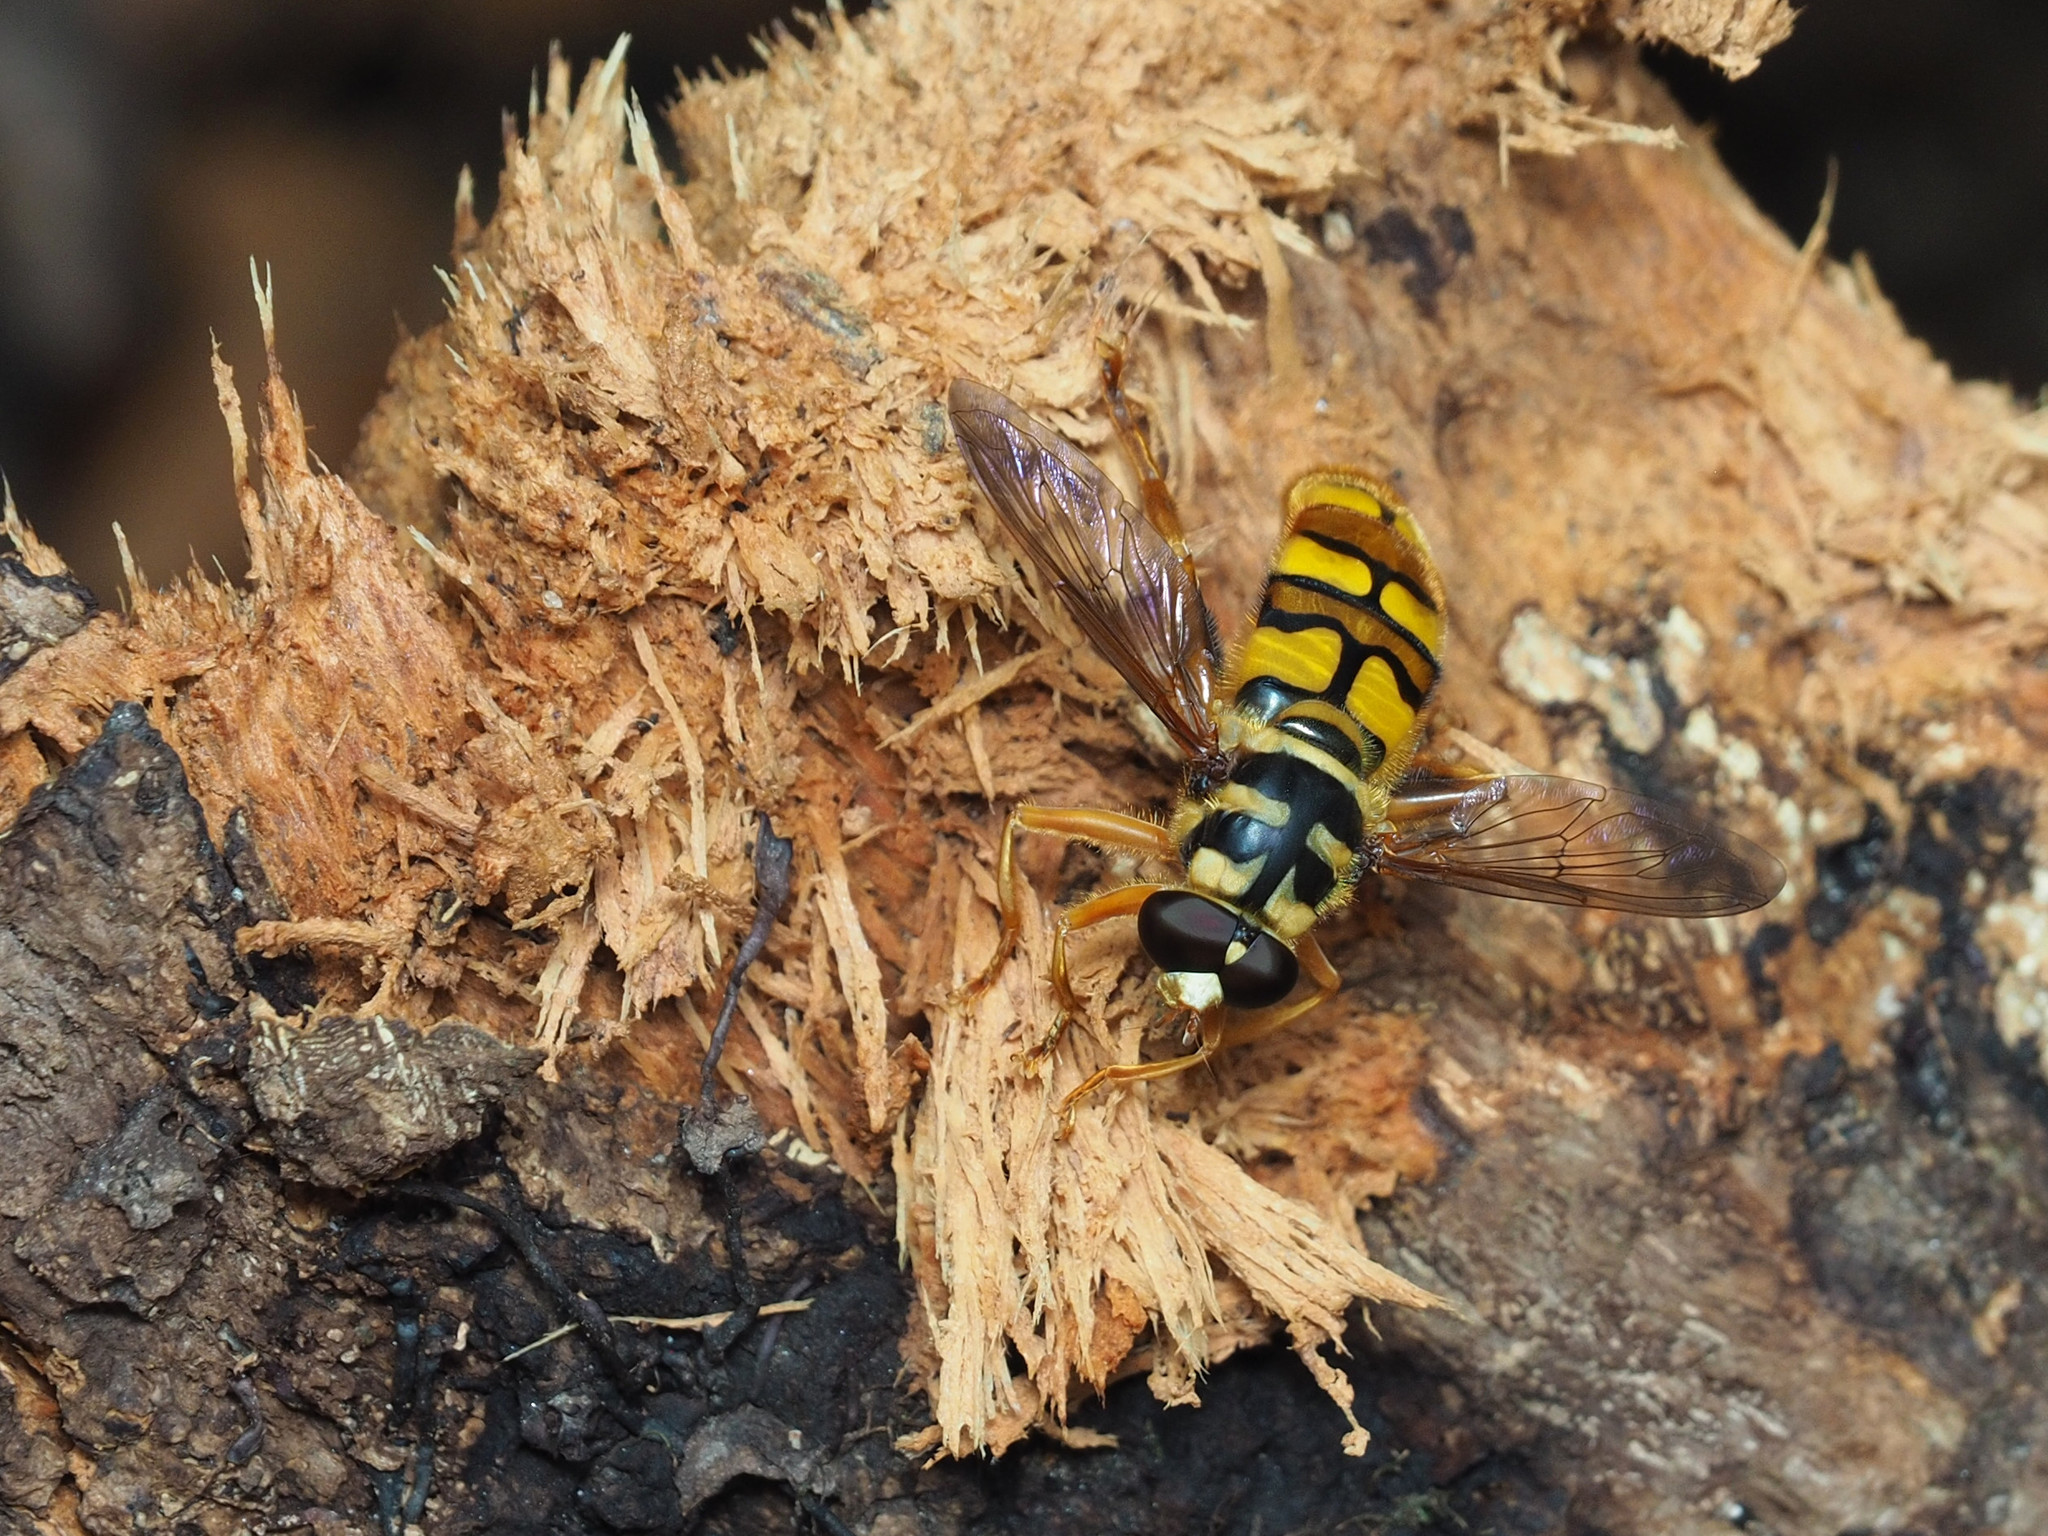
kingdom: Animalia
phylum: Arthropoda
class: Insecta
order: Diptera
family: Syrphidae
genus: Milesia
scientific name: Milesia virginiensis
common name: Virginia giant
